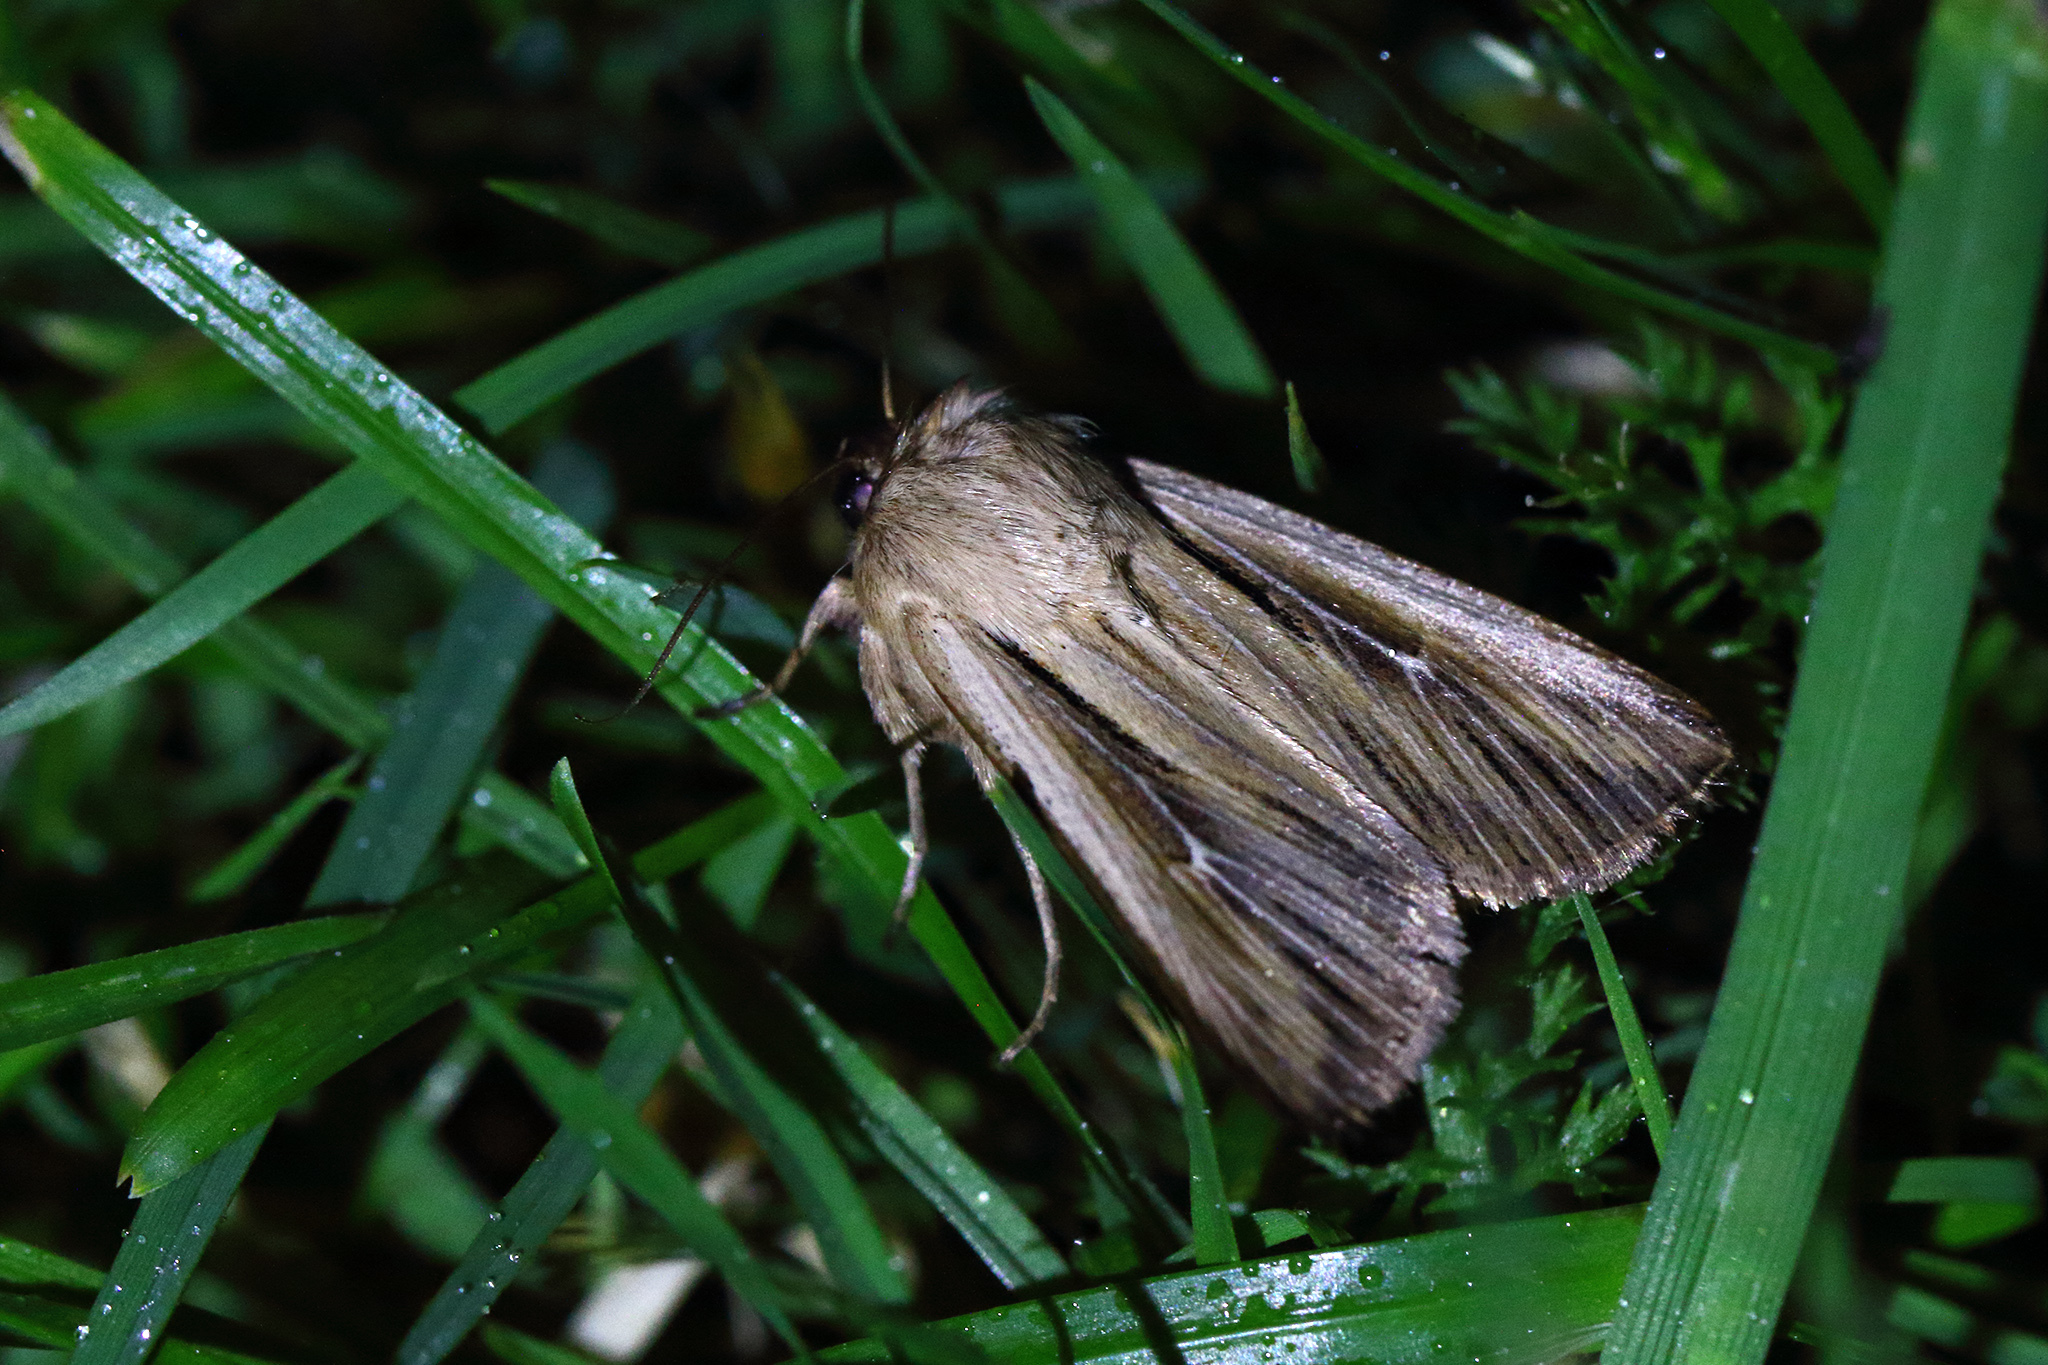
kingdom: Animalia
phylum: Arthropoda
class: Insecta
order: Lepidoptera
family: Noctuidae
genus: Leucania
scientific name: Leucania comma
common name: Shoulder-striped wainscot
